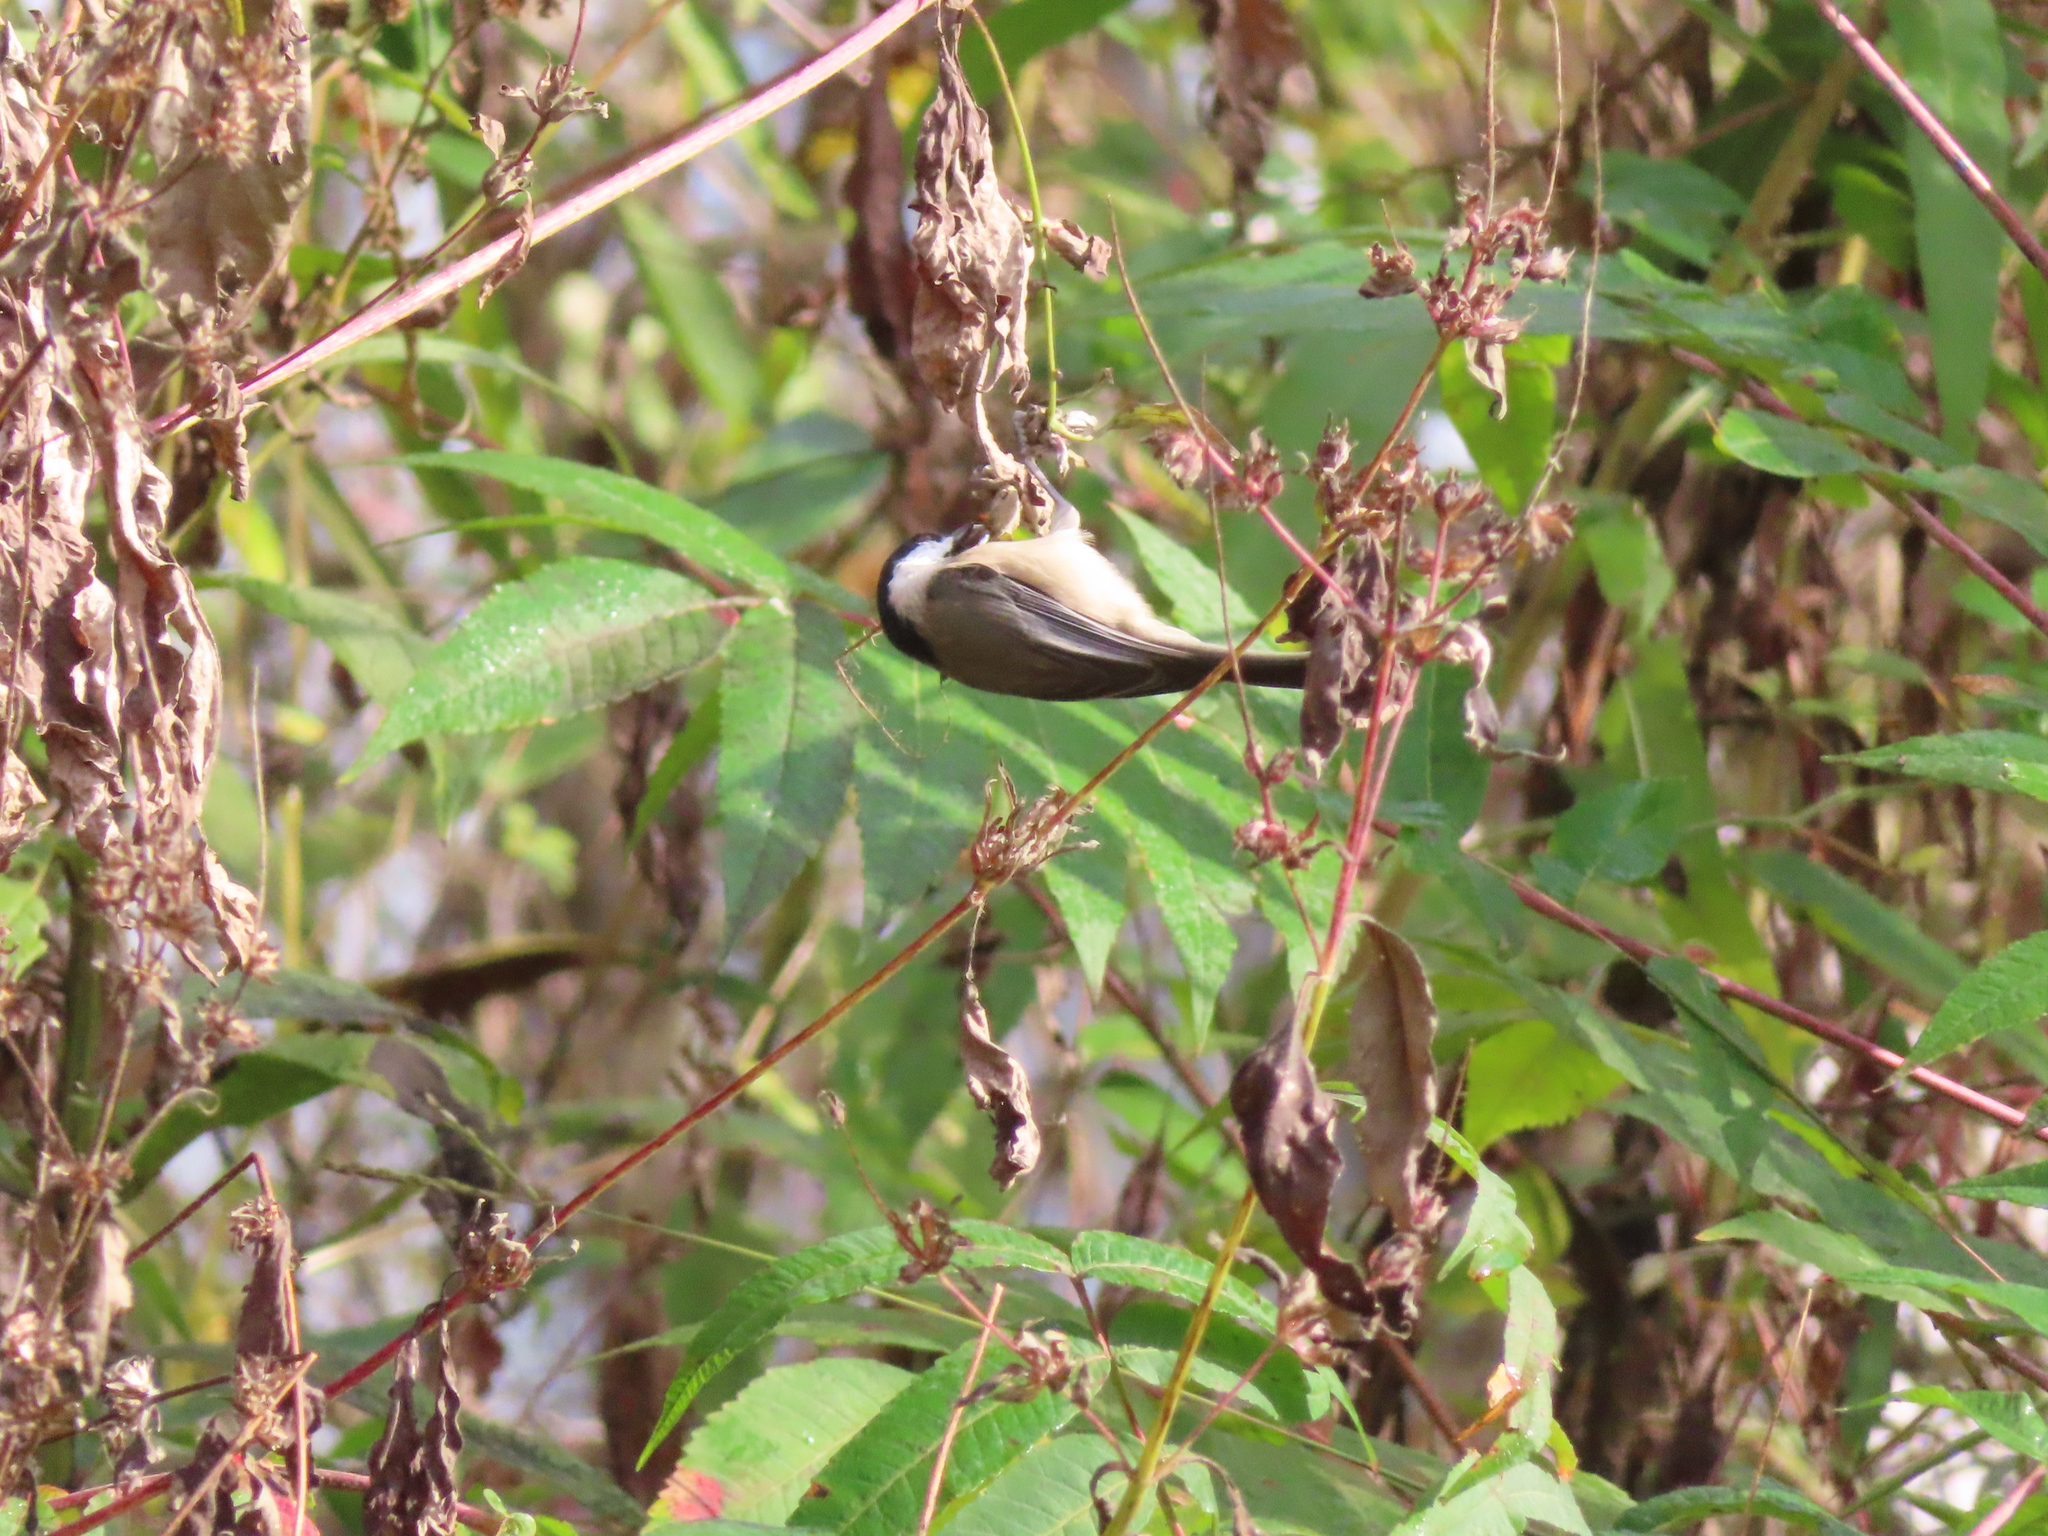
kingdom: Animalia
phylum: Chordata
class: Aves
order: Passeriformes
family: Paridae
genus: Poecile
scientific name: Poecile carolinensis
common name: Carolina chickadee
